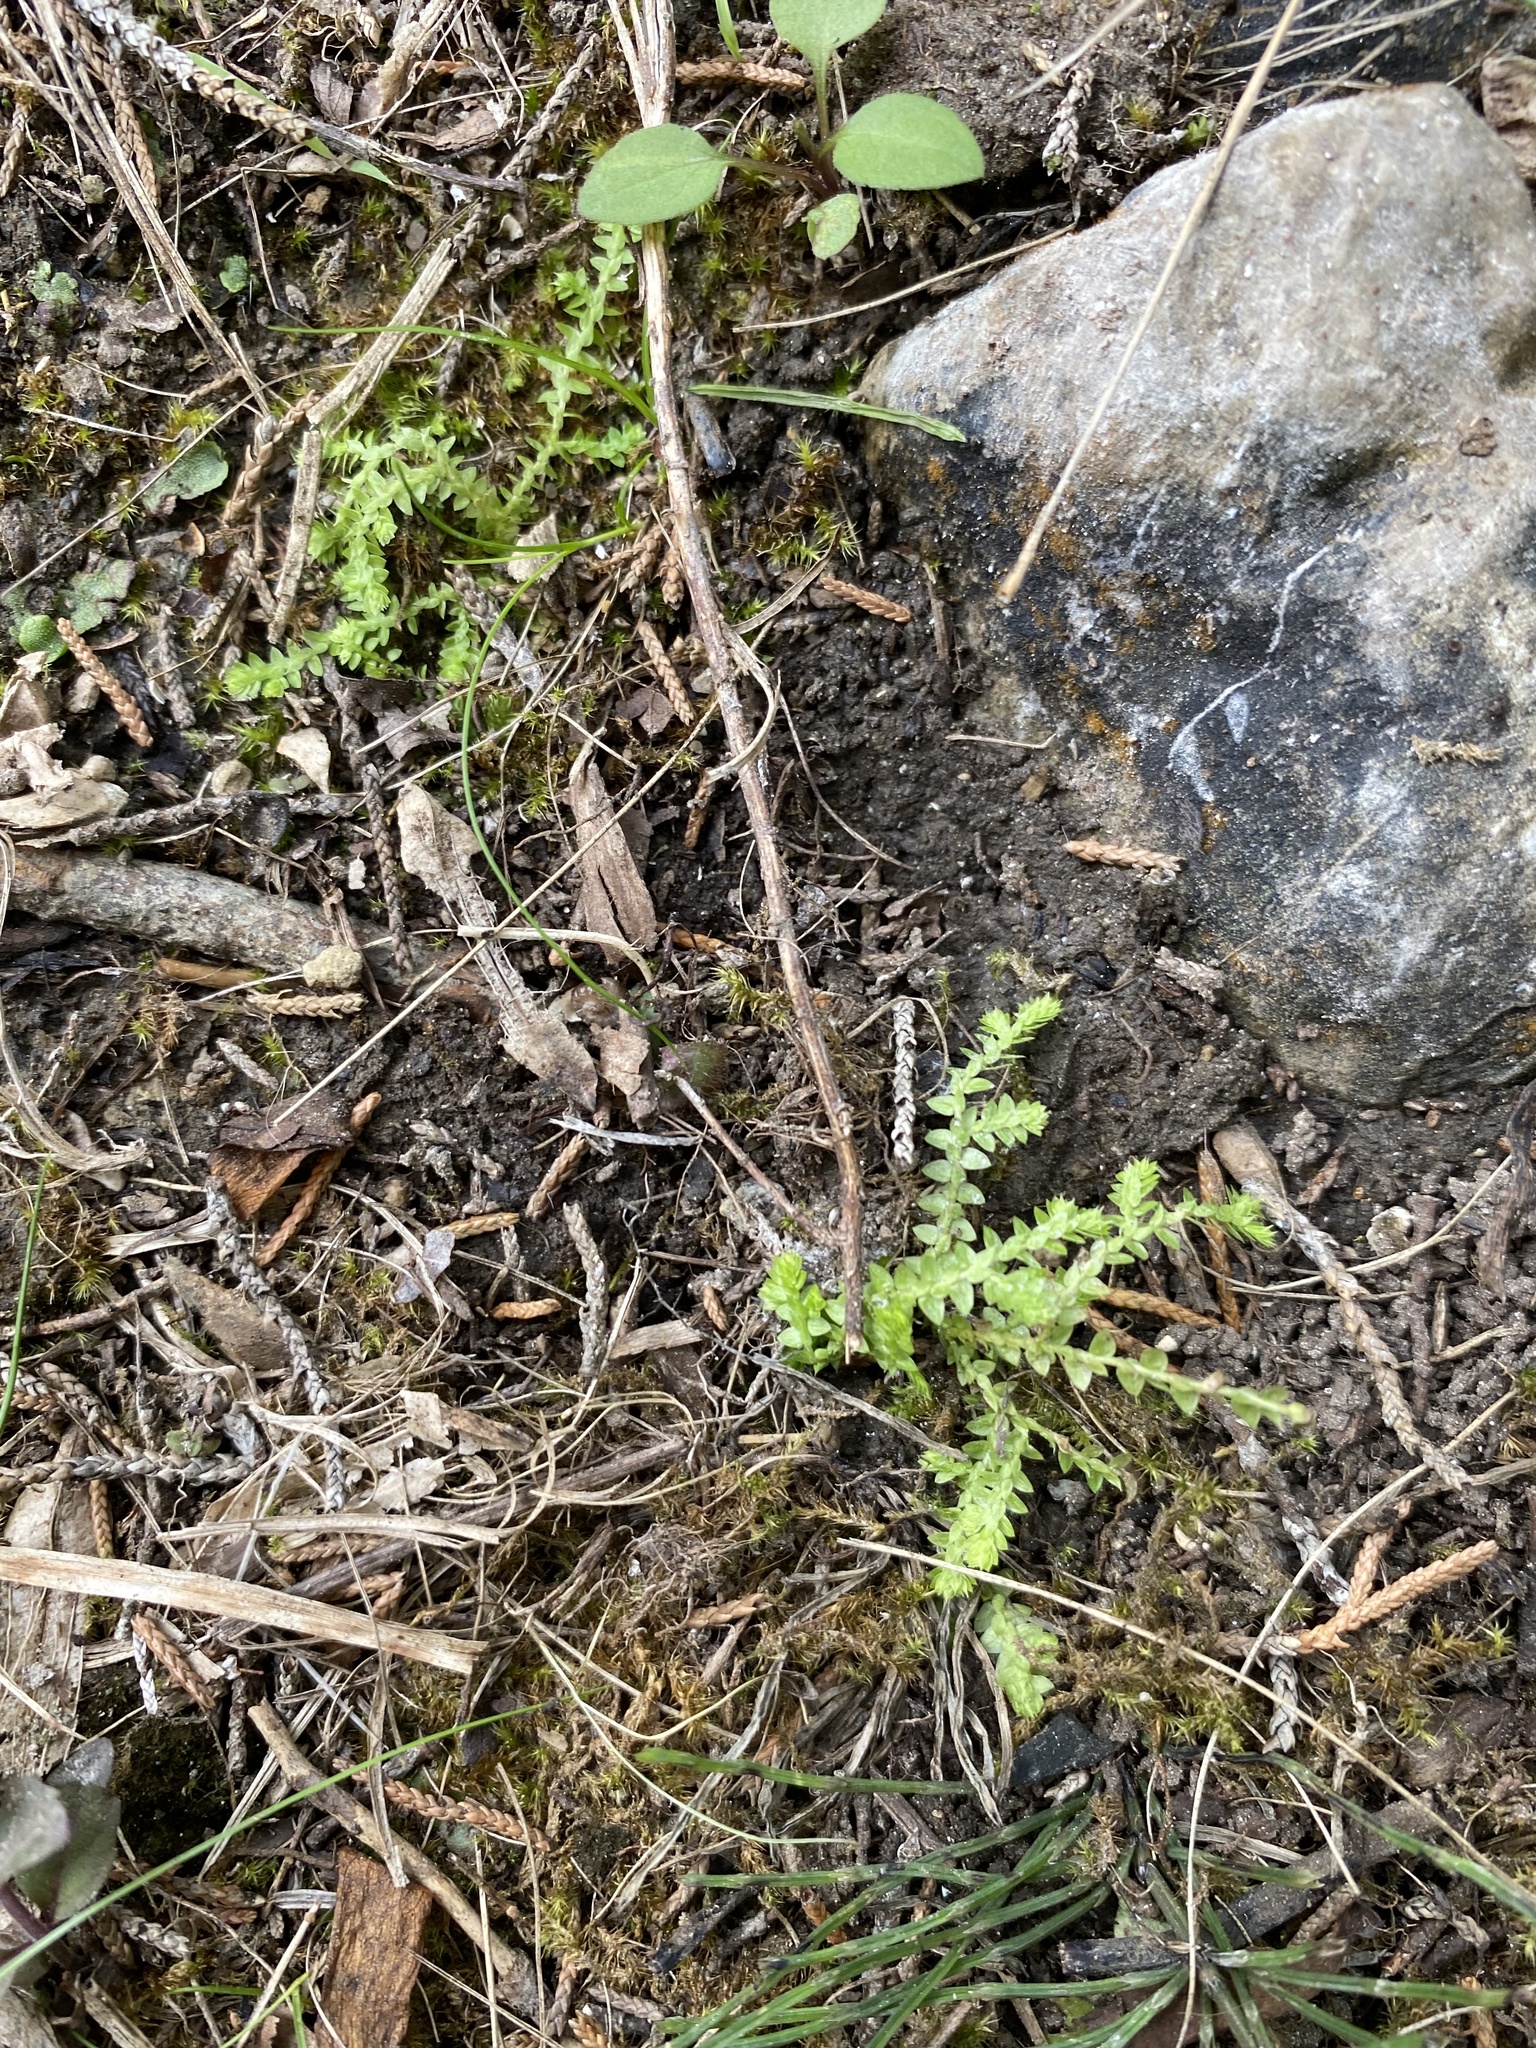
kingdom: Plantae
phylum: Tracheophyta
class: Lycopodiopsida
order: Selaginellales
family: Selaginellaceae
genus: Selaginella
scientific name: Selaginella apoda
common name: Creeping spikemoss
